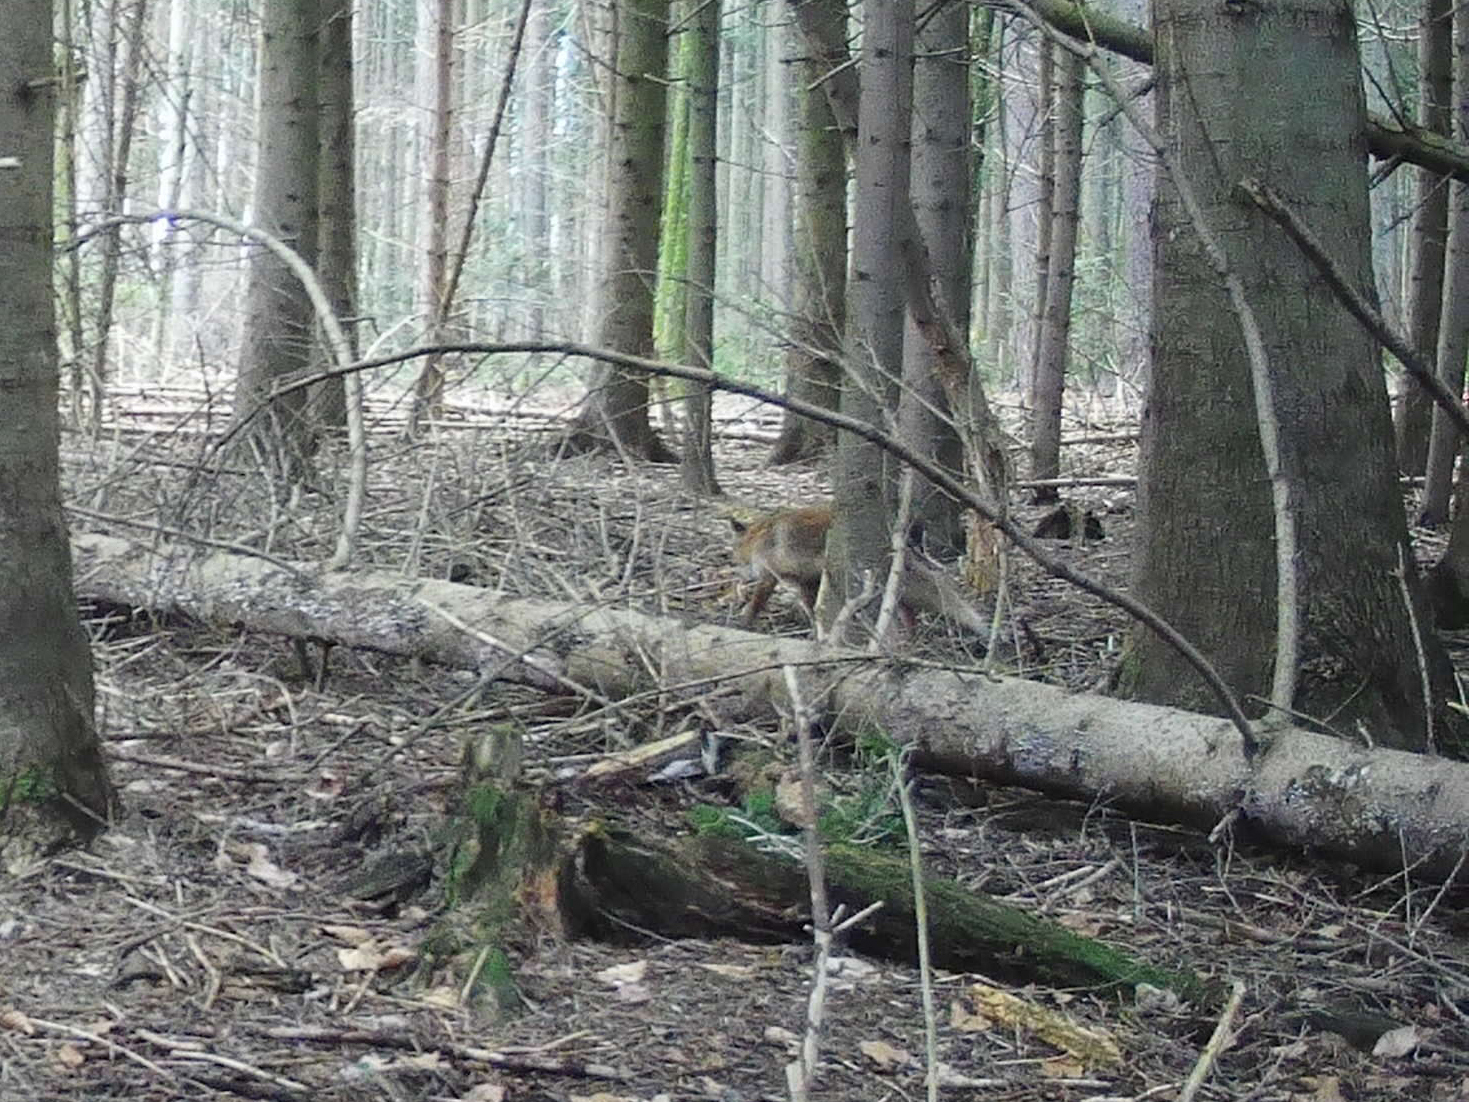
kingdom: Animalia
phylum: Chordata
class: Mammalia
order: Carnivora
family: Canidae
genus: Vulpes
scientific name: Vulpes vulpes
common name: Red fox
